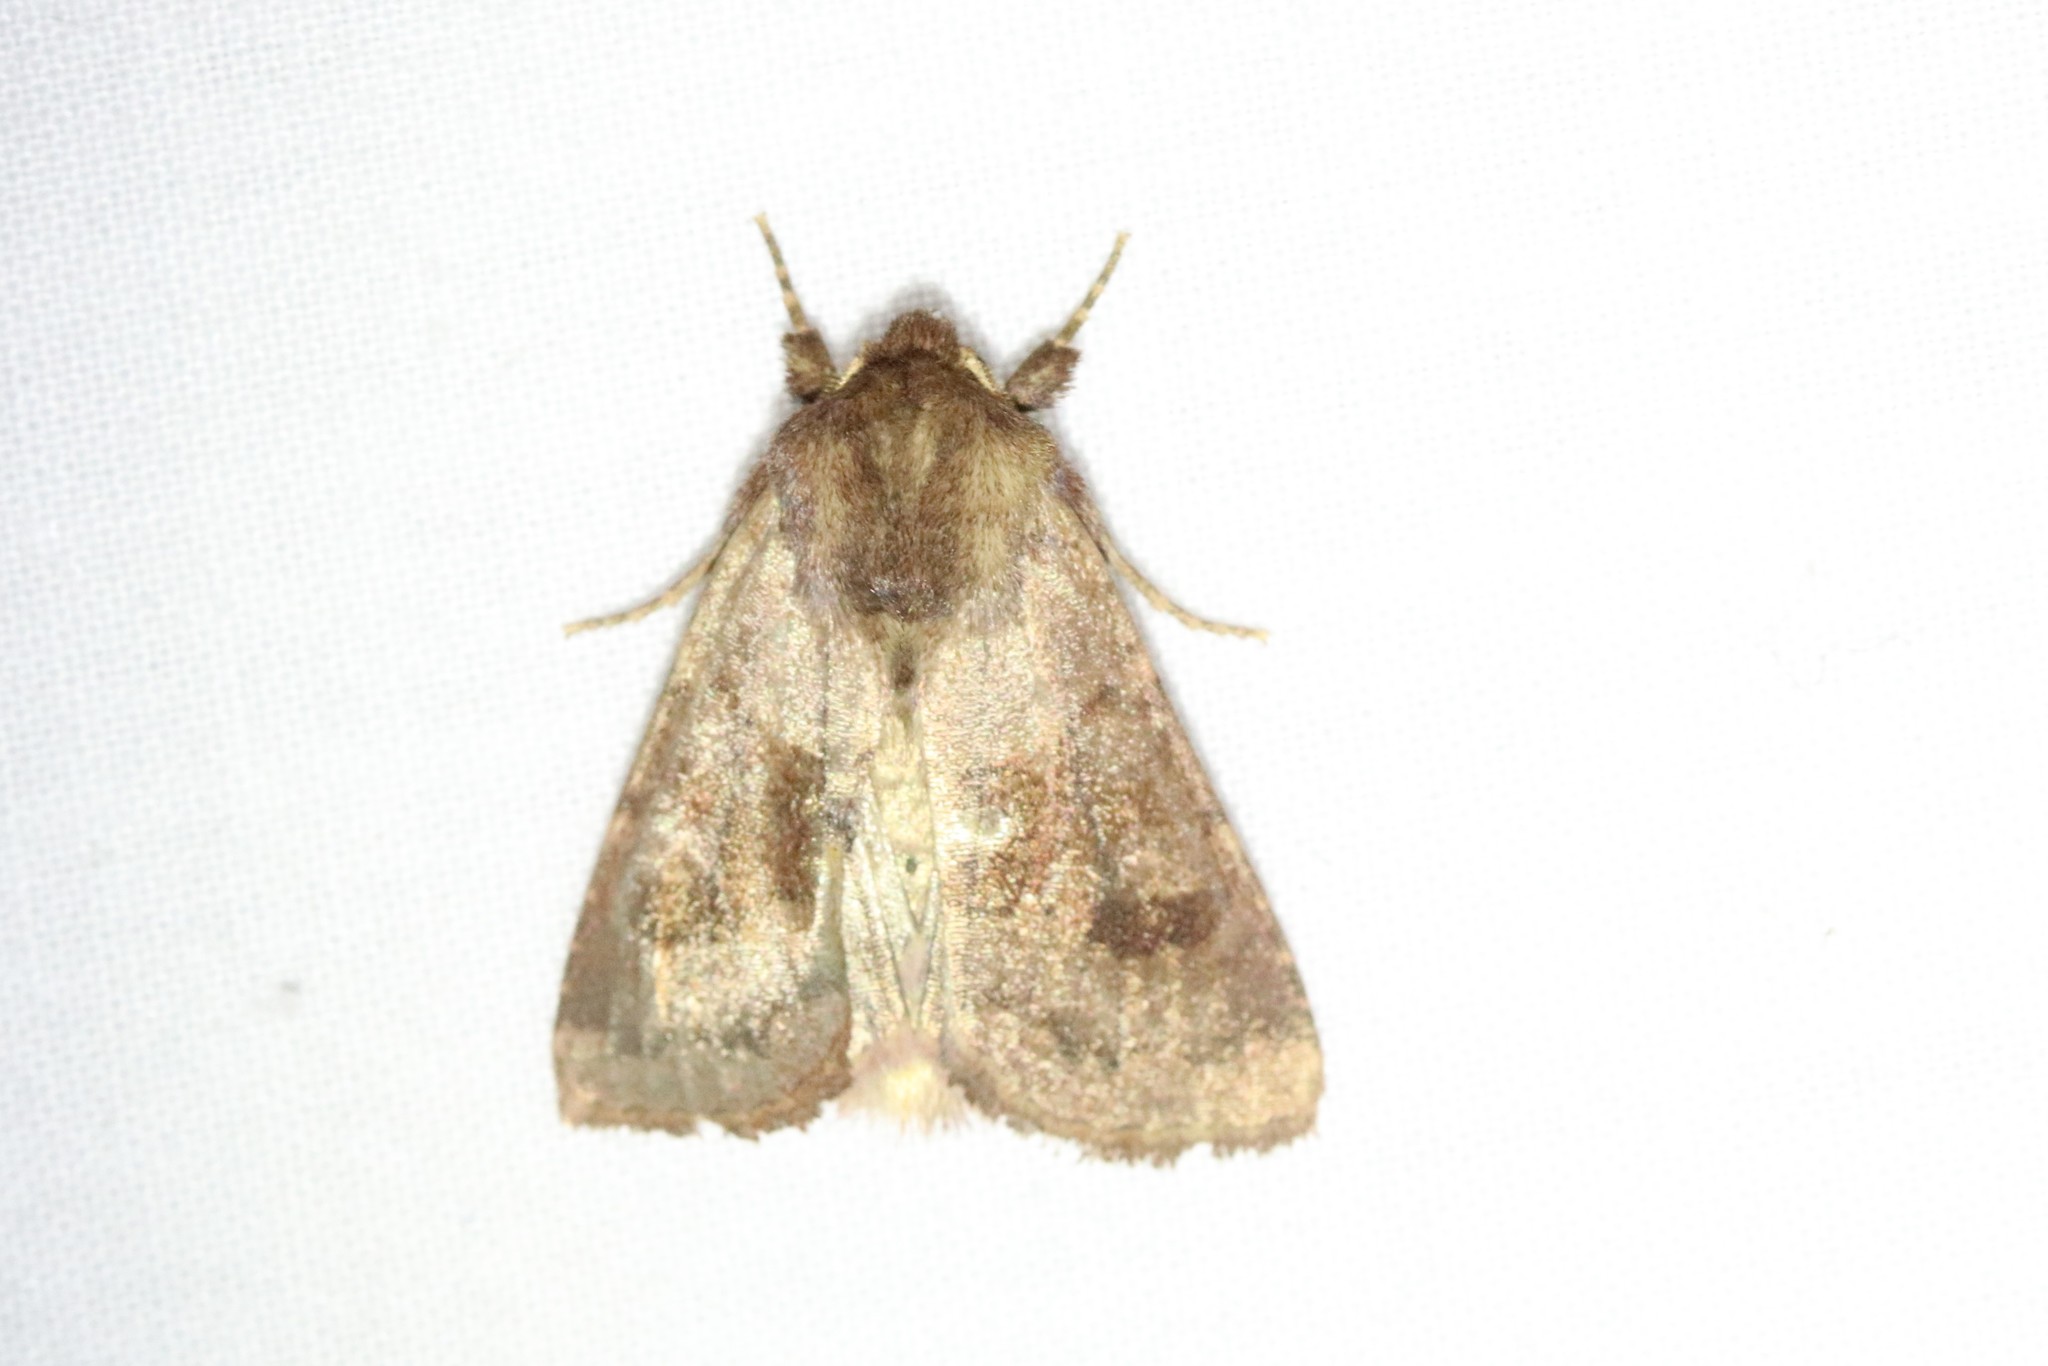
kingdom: Animalia
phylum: Arthropoda
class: Insecta
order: Lepidoptera
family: Noctuidae
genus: Nephelodes
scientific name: Nephelodes minians
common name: Bronzed cutworm
